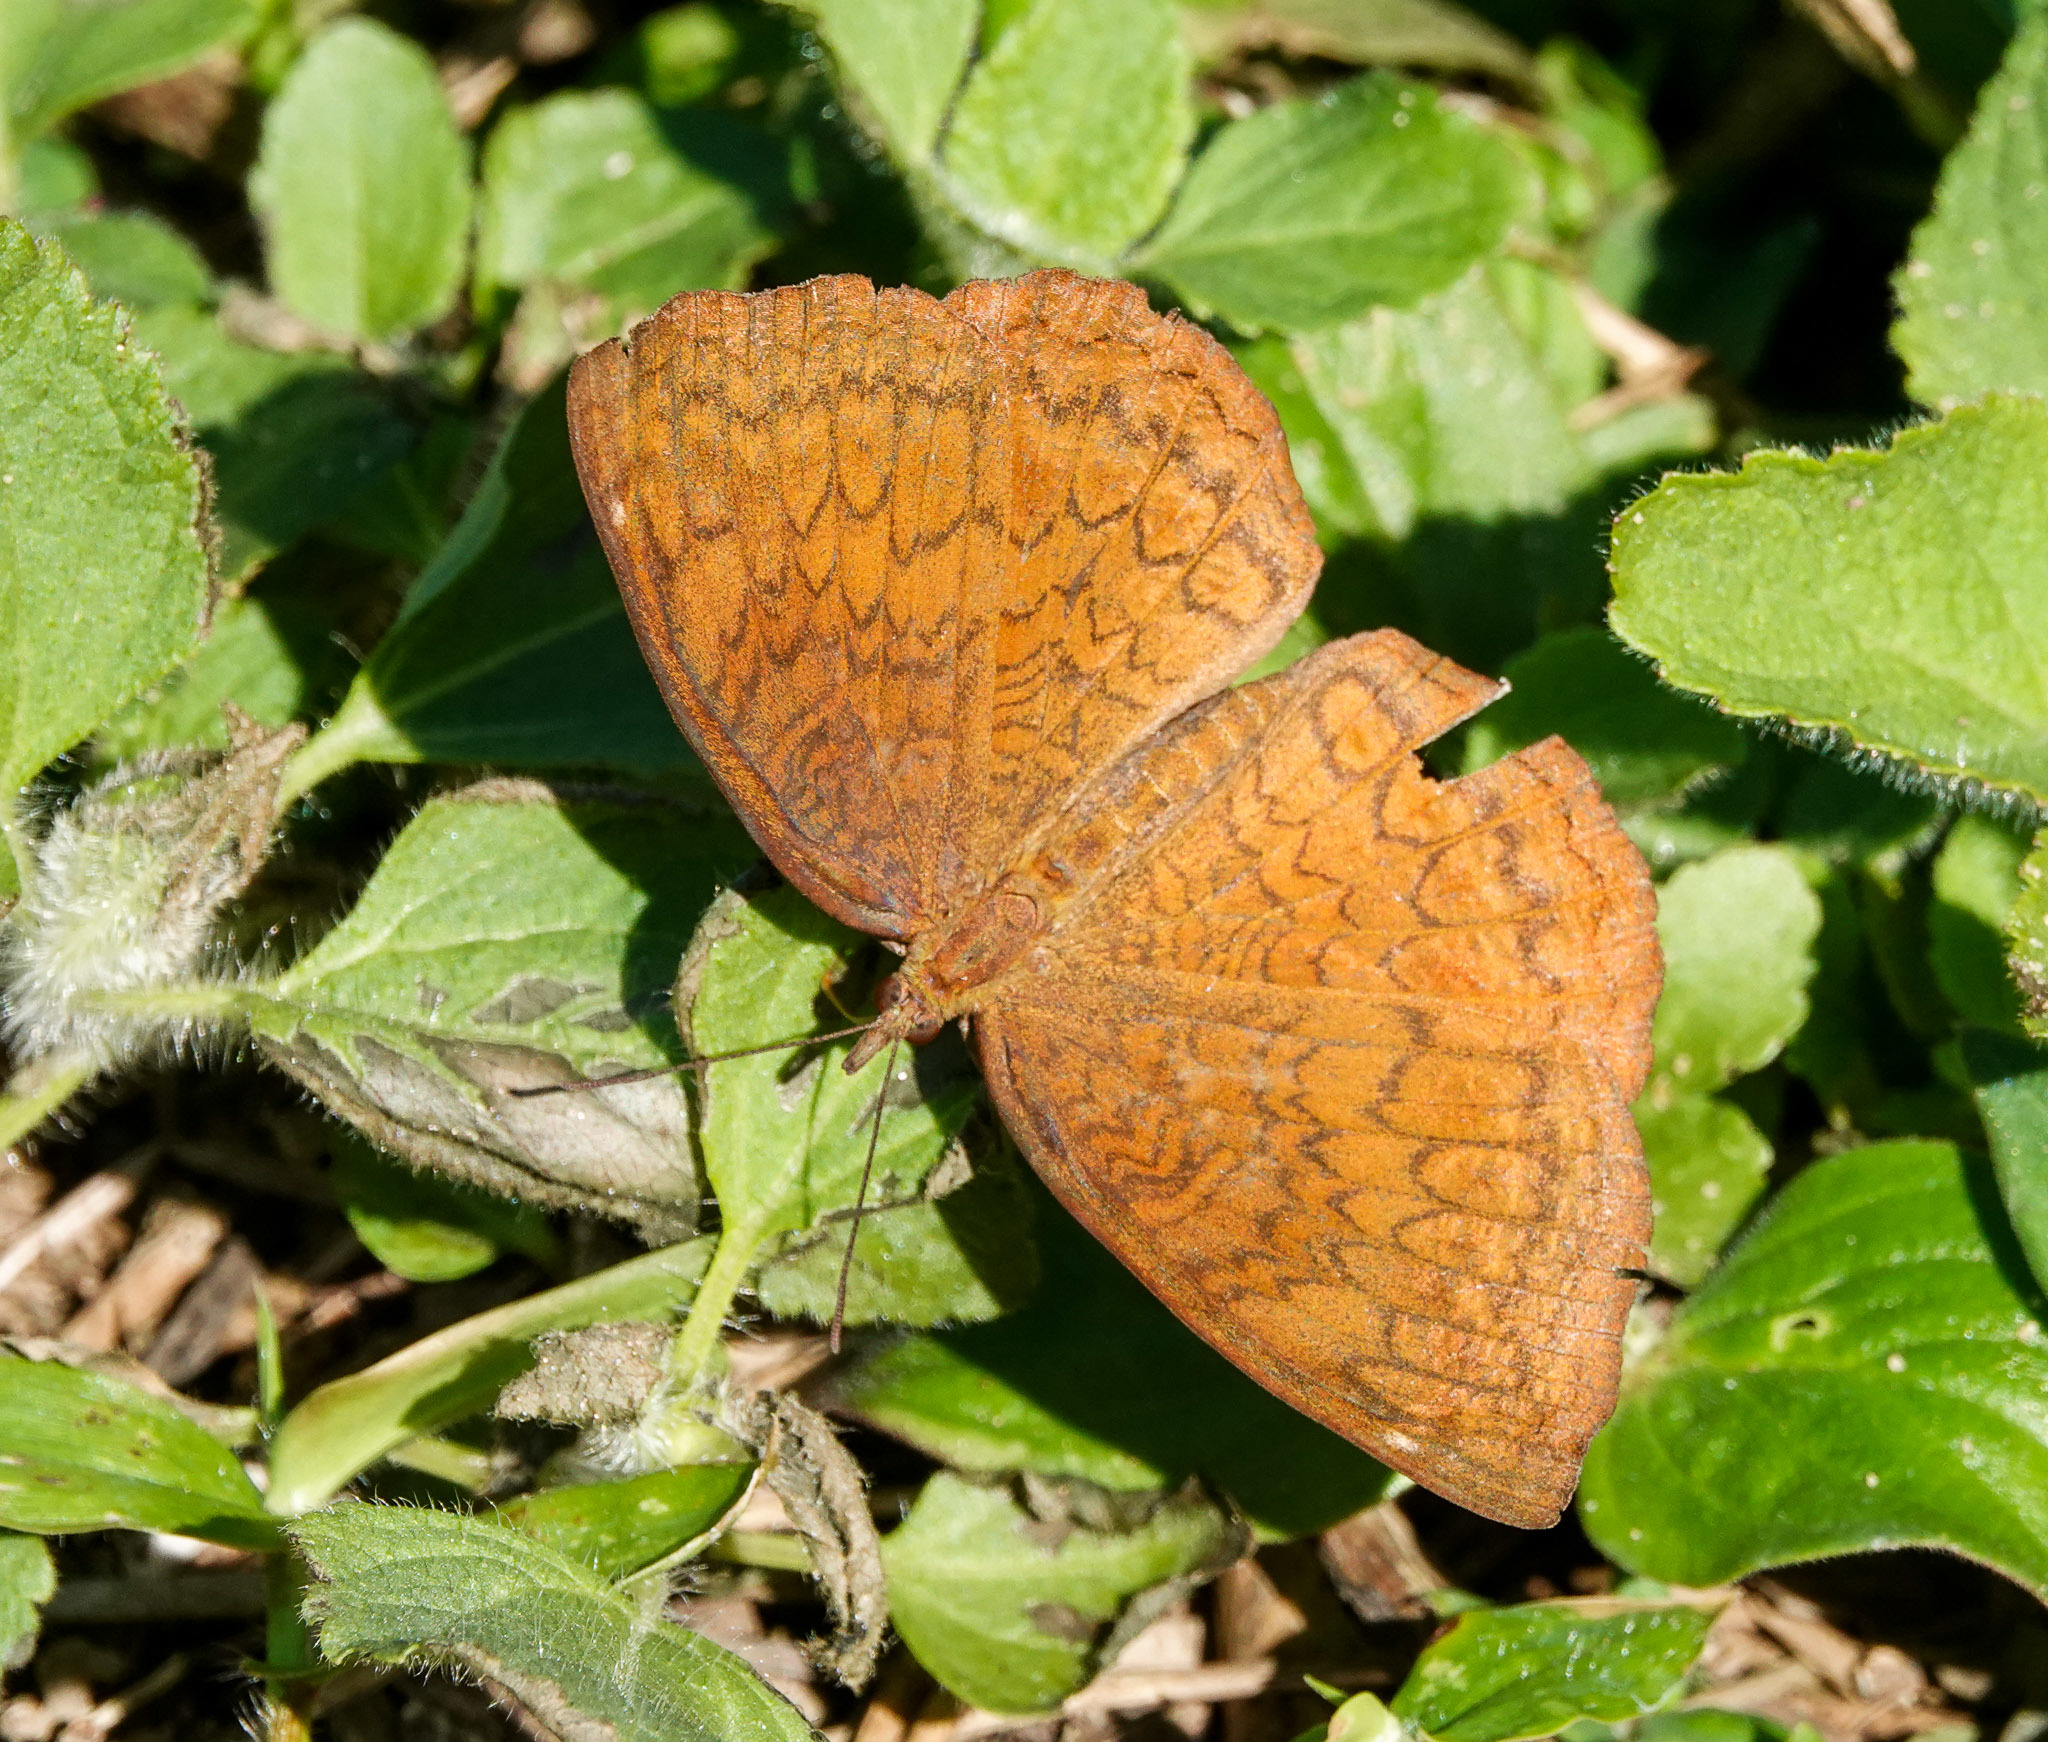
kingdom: Animalia
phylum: Arthropoda
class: Insecta
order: Lepidoptera
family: Nymphalidae
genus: Ariadne
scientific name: Ariadne merione
